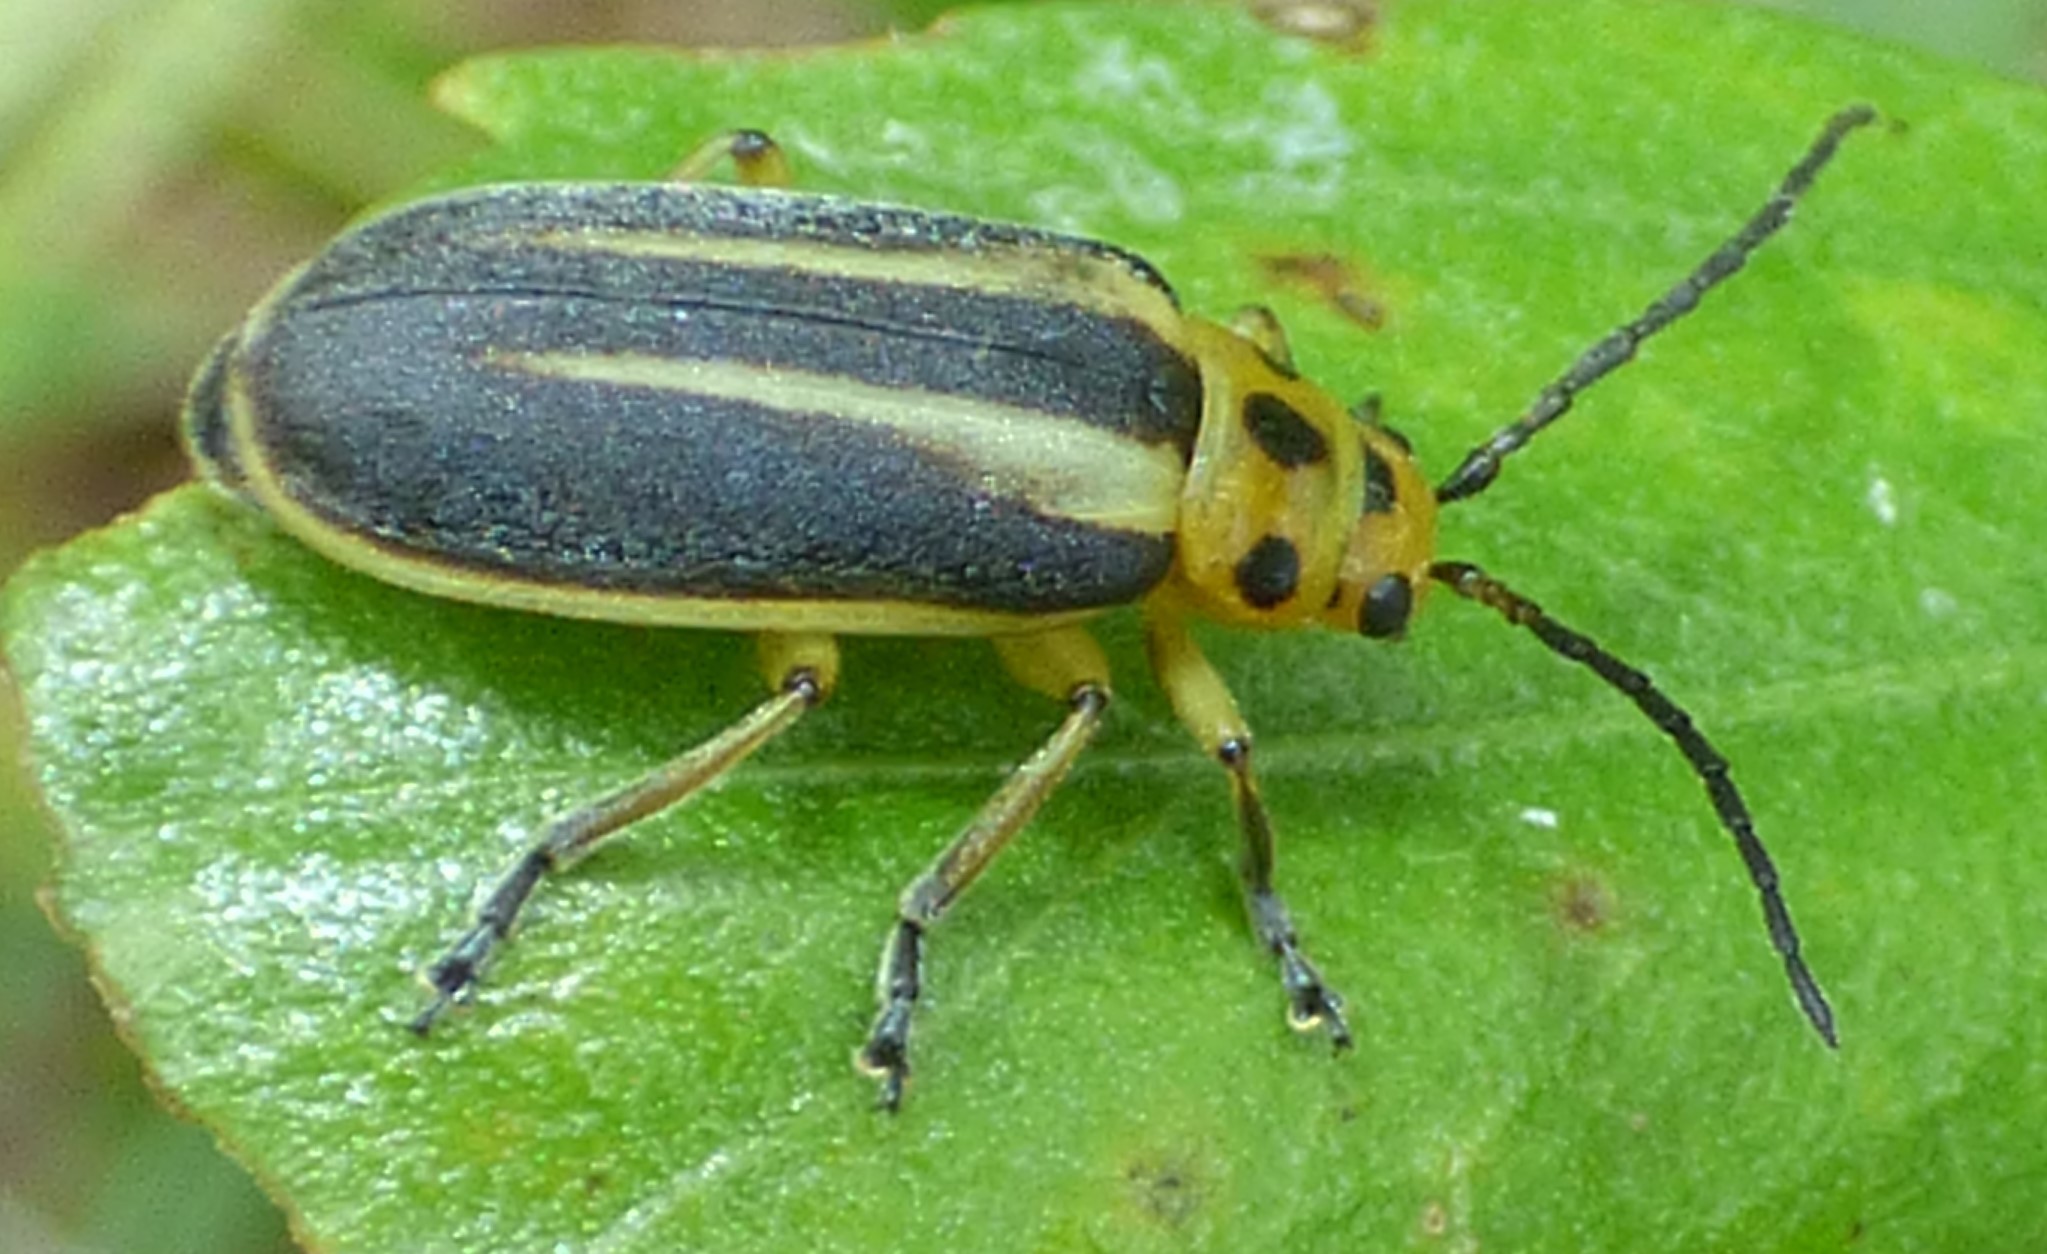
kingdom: Animalia
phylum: Arthropoda
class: Insecta
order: Coleoptera
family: Chrysomelidae
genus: Trirhabda
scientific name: Trirhabda bacharidis
